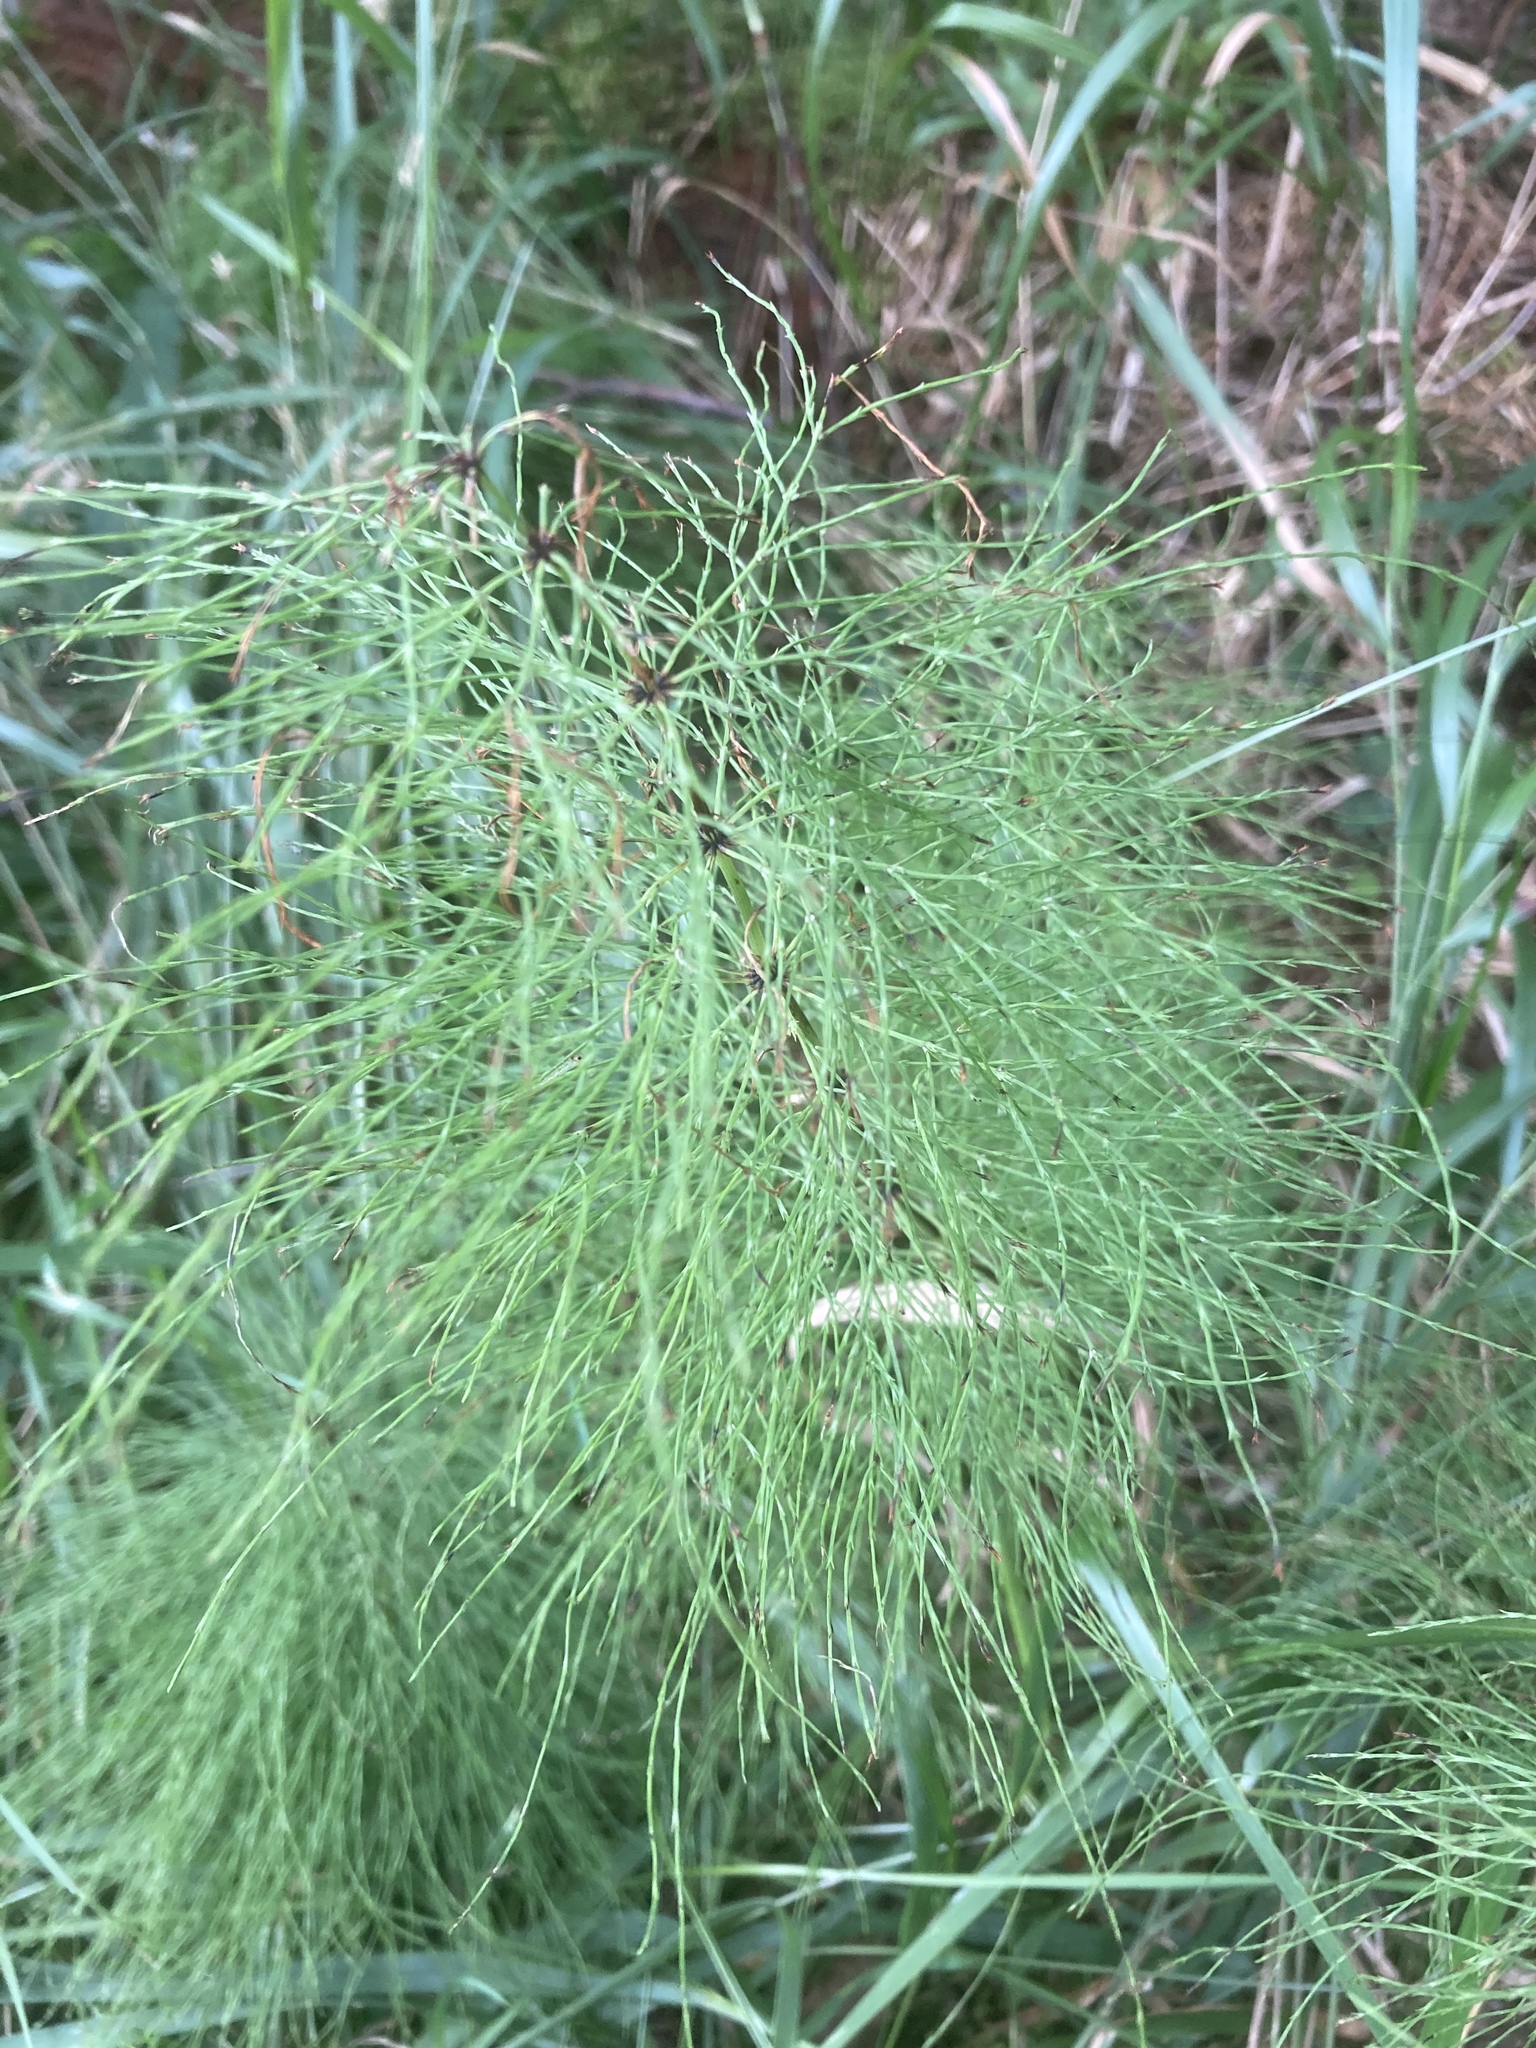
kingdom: Plantae
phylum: Tracheophyta
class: Polypodiopsida
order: Equisetales
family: Equisetaceae
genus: Equisetum
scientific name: Equisetum sylvaticum
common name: Wood horsetail
